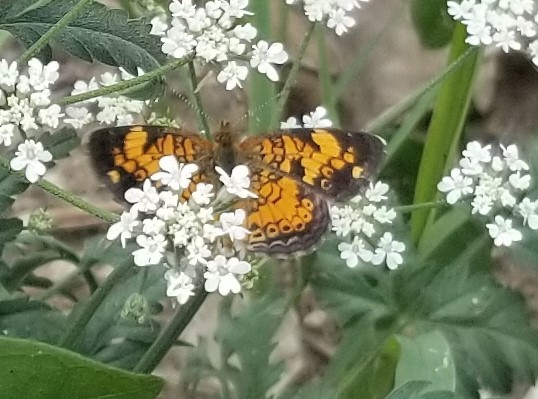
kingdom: Animalia
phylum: Arthropoda
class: Insecta
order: Lepidoptera
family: Nymphalidae
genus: Phyciodes
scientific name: Phyciodes tharos
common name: Pearl crescent
